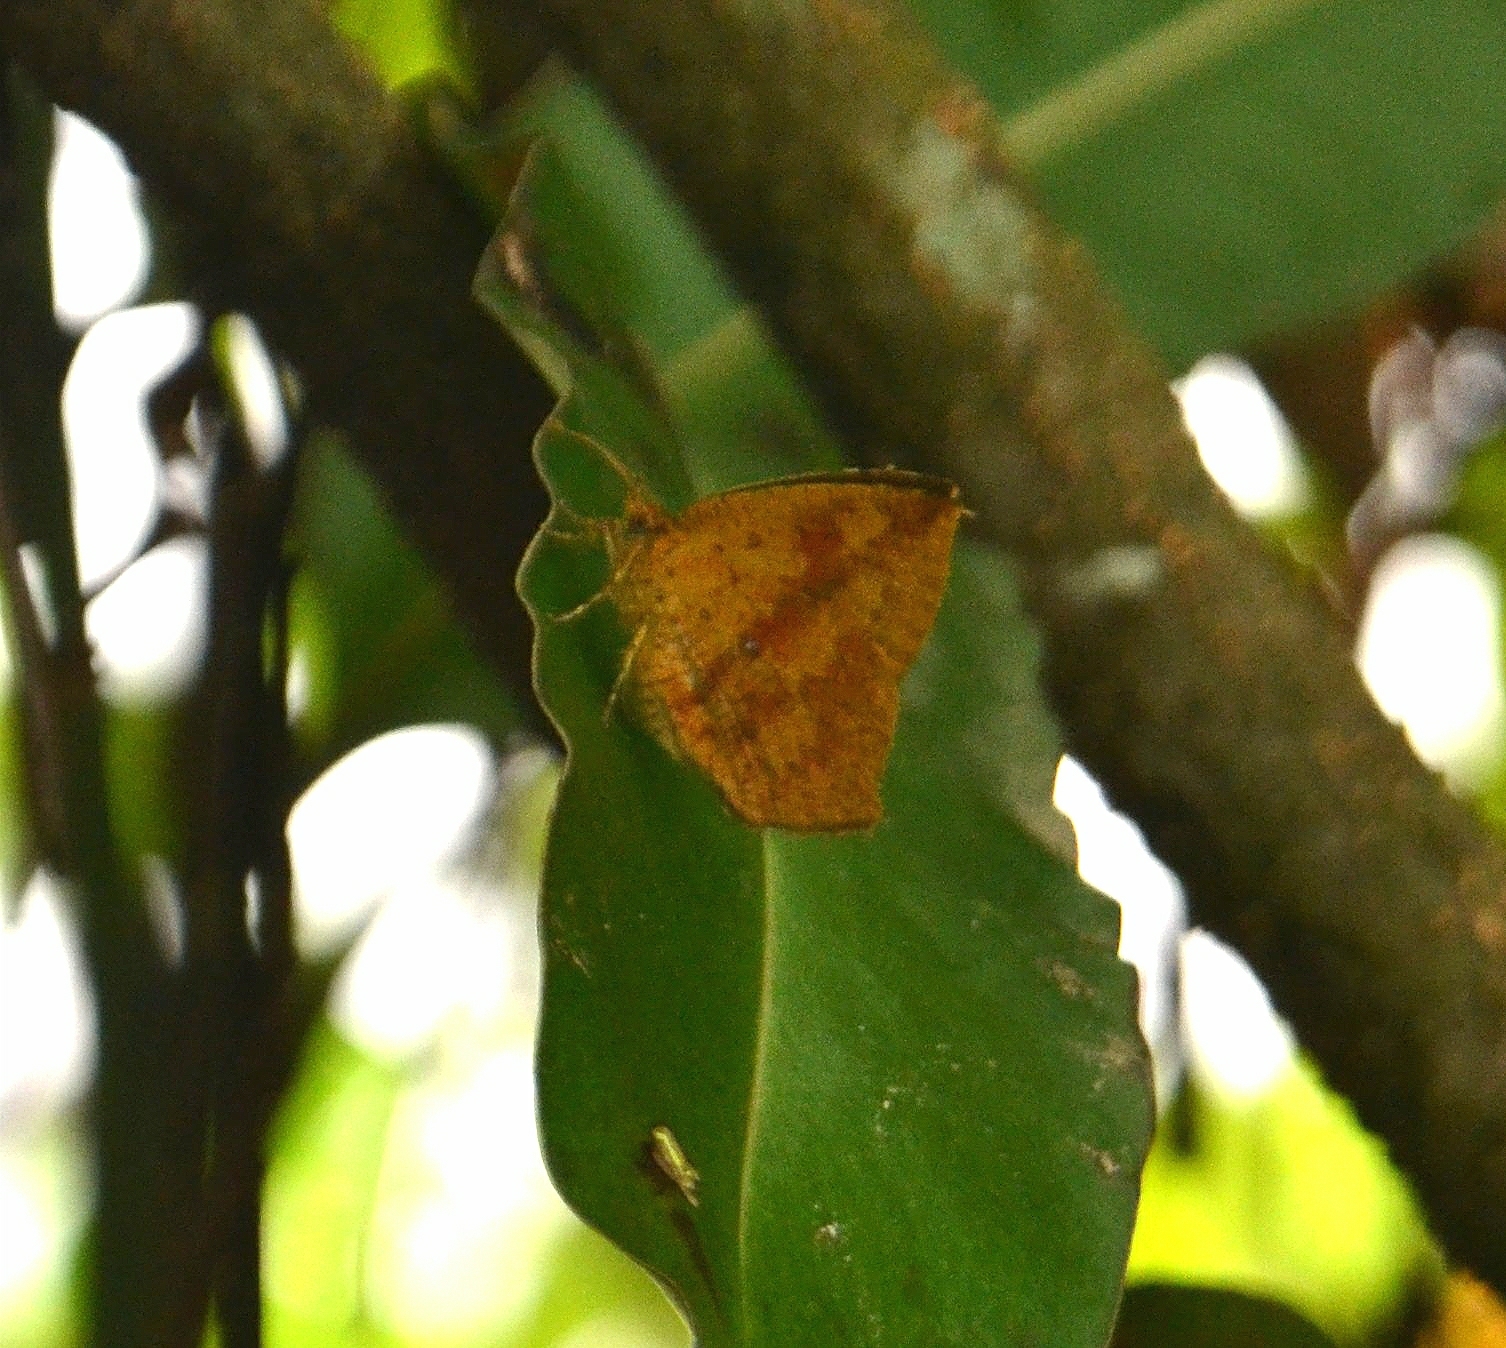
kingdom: Animalia
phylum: Arthropoda
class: Insecta
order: Lepidoptera
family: Callidulidae
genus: Tetragonus
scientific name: Tetragonus catamitus
